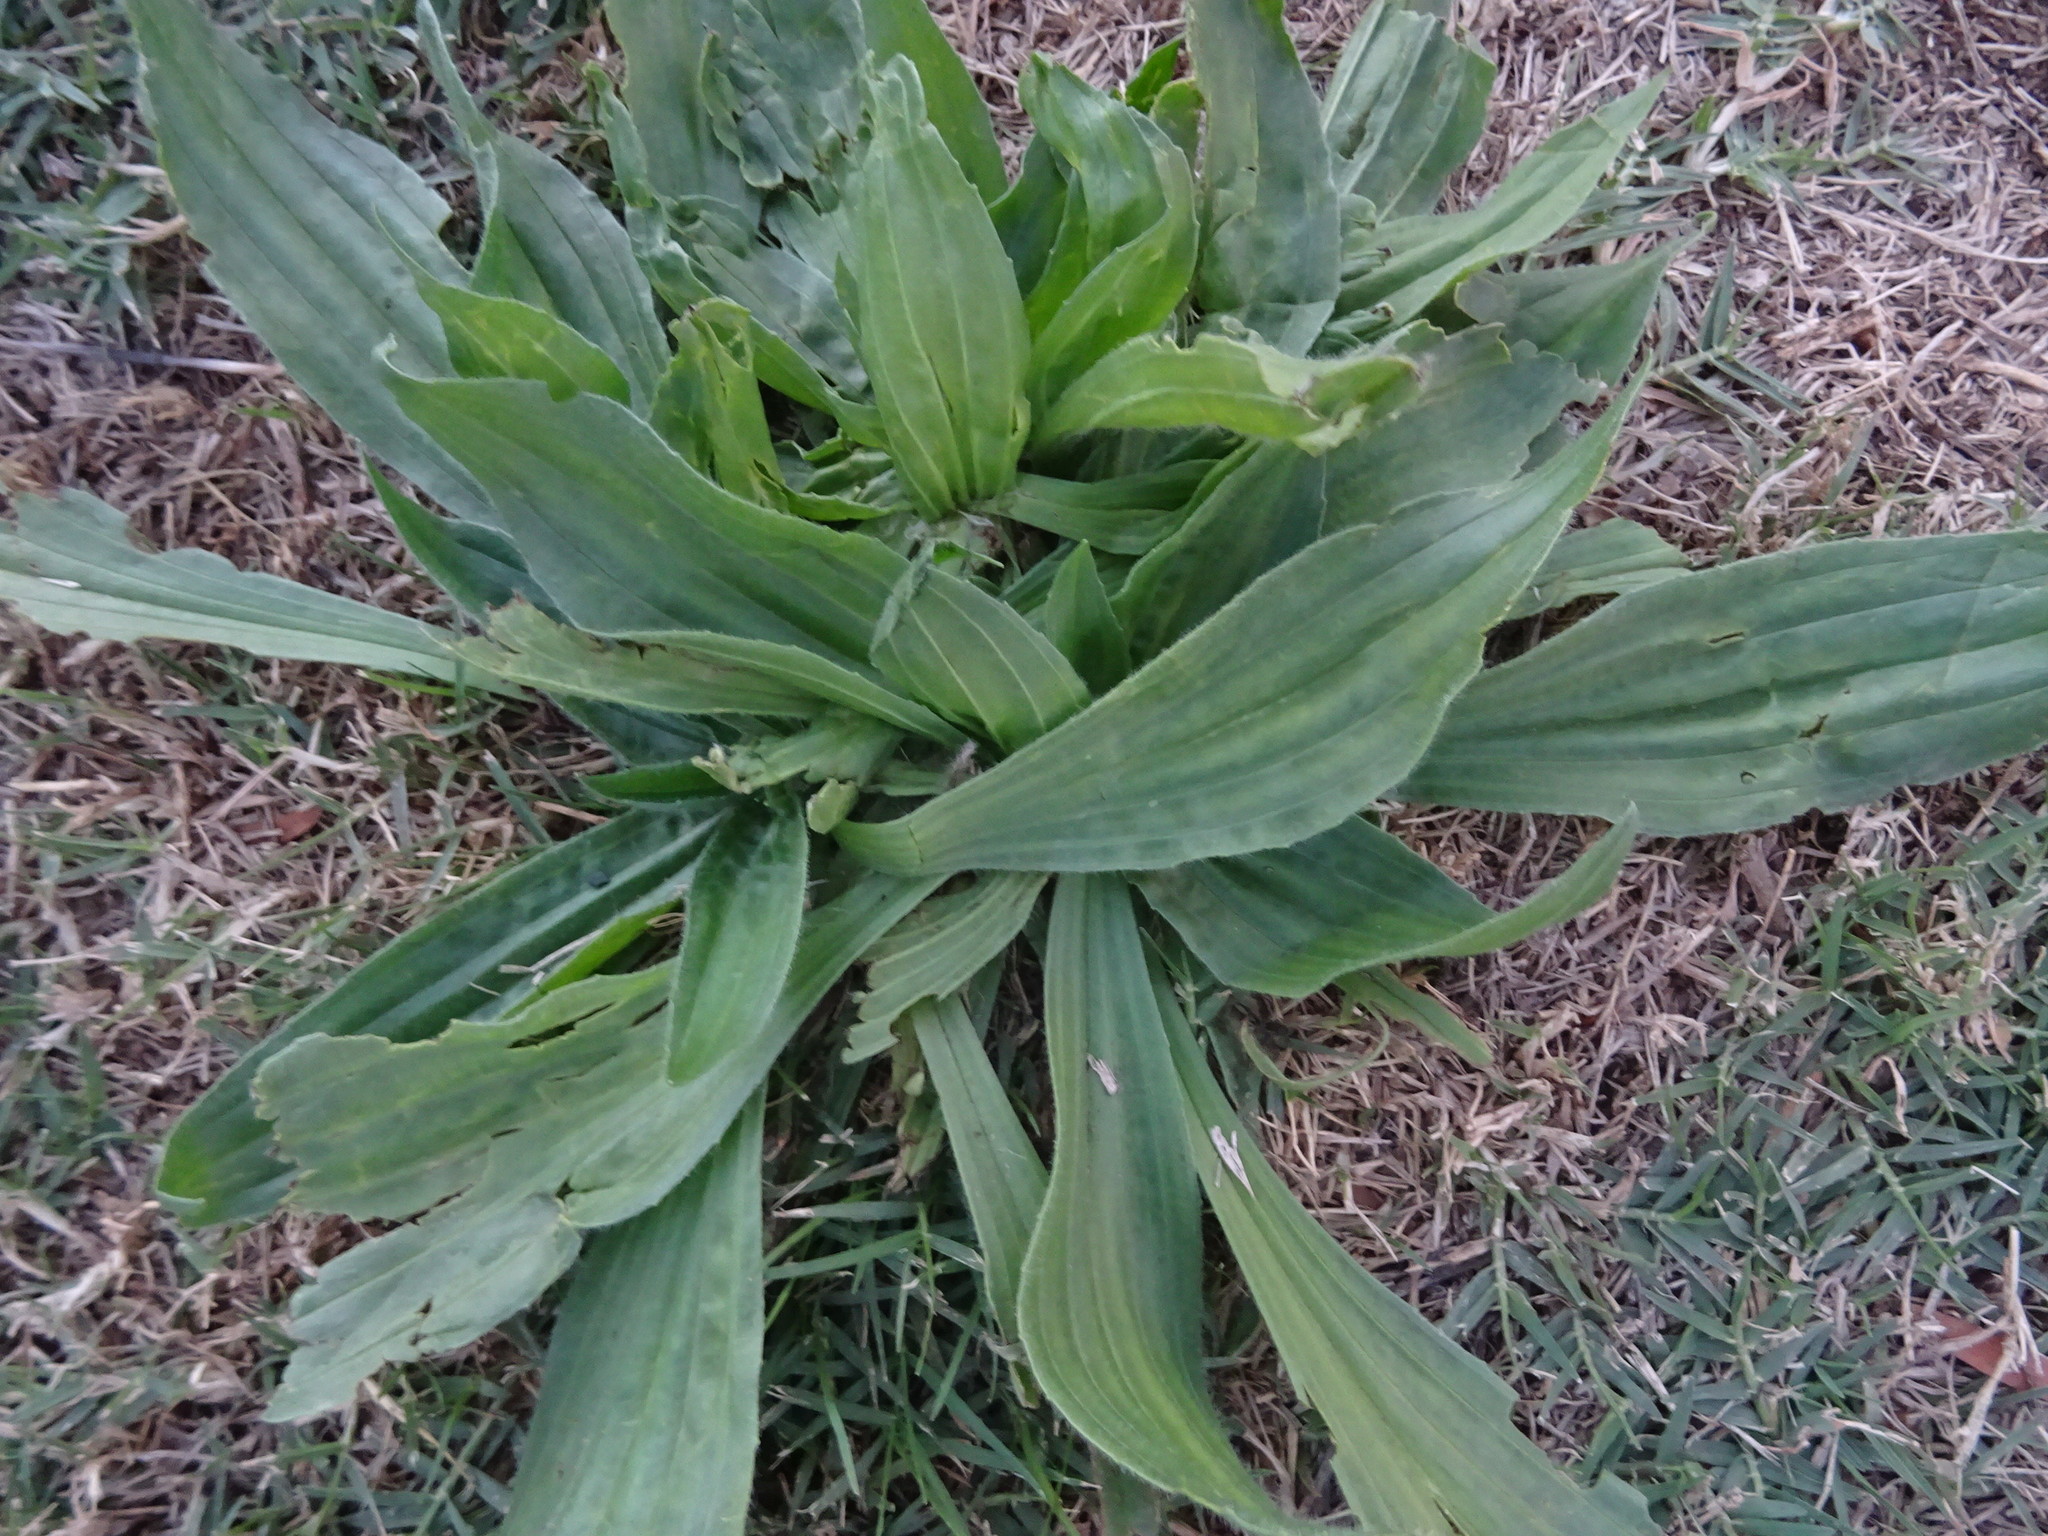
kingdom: Plantae
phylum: Tracheophyta
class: Magnoliopsida
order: Lamiales
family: Plantaginaceae
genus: Plantago
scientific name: Plantago lanceolata
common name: Ribwort plantain
